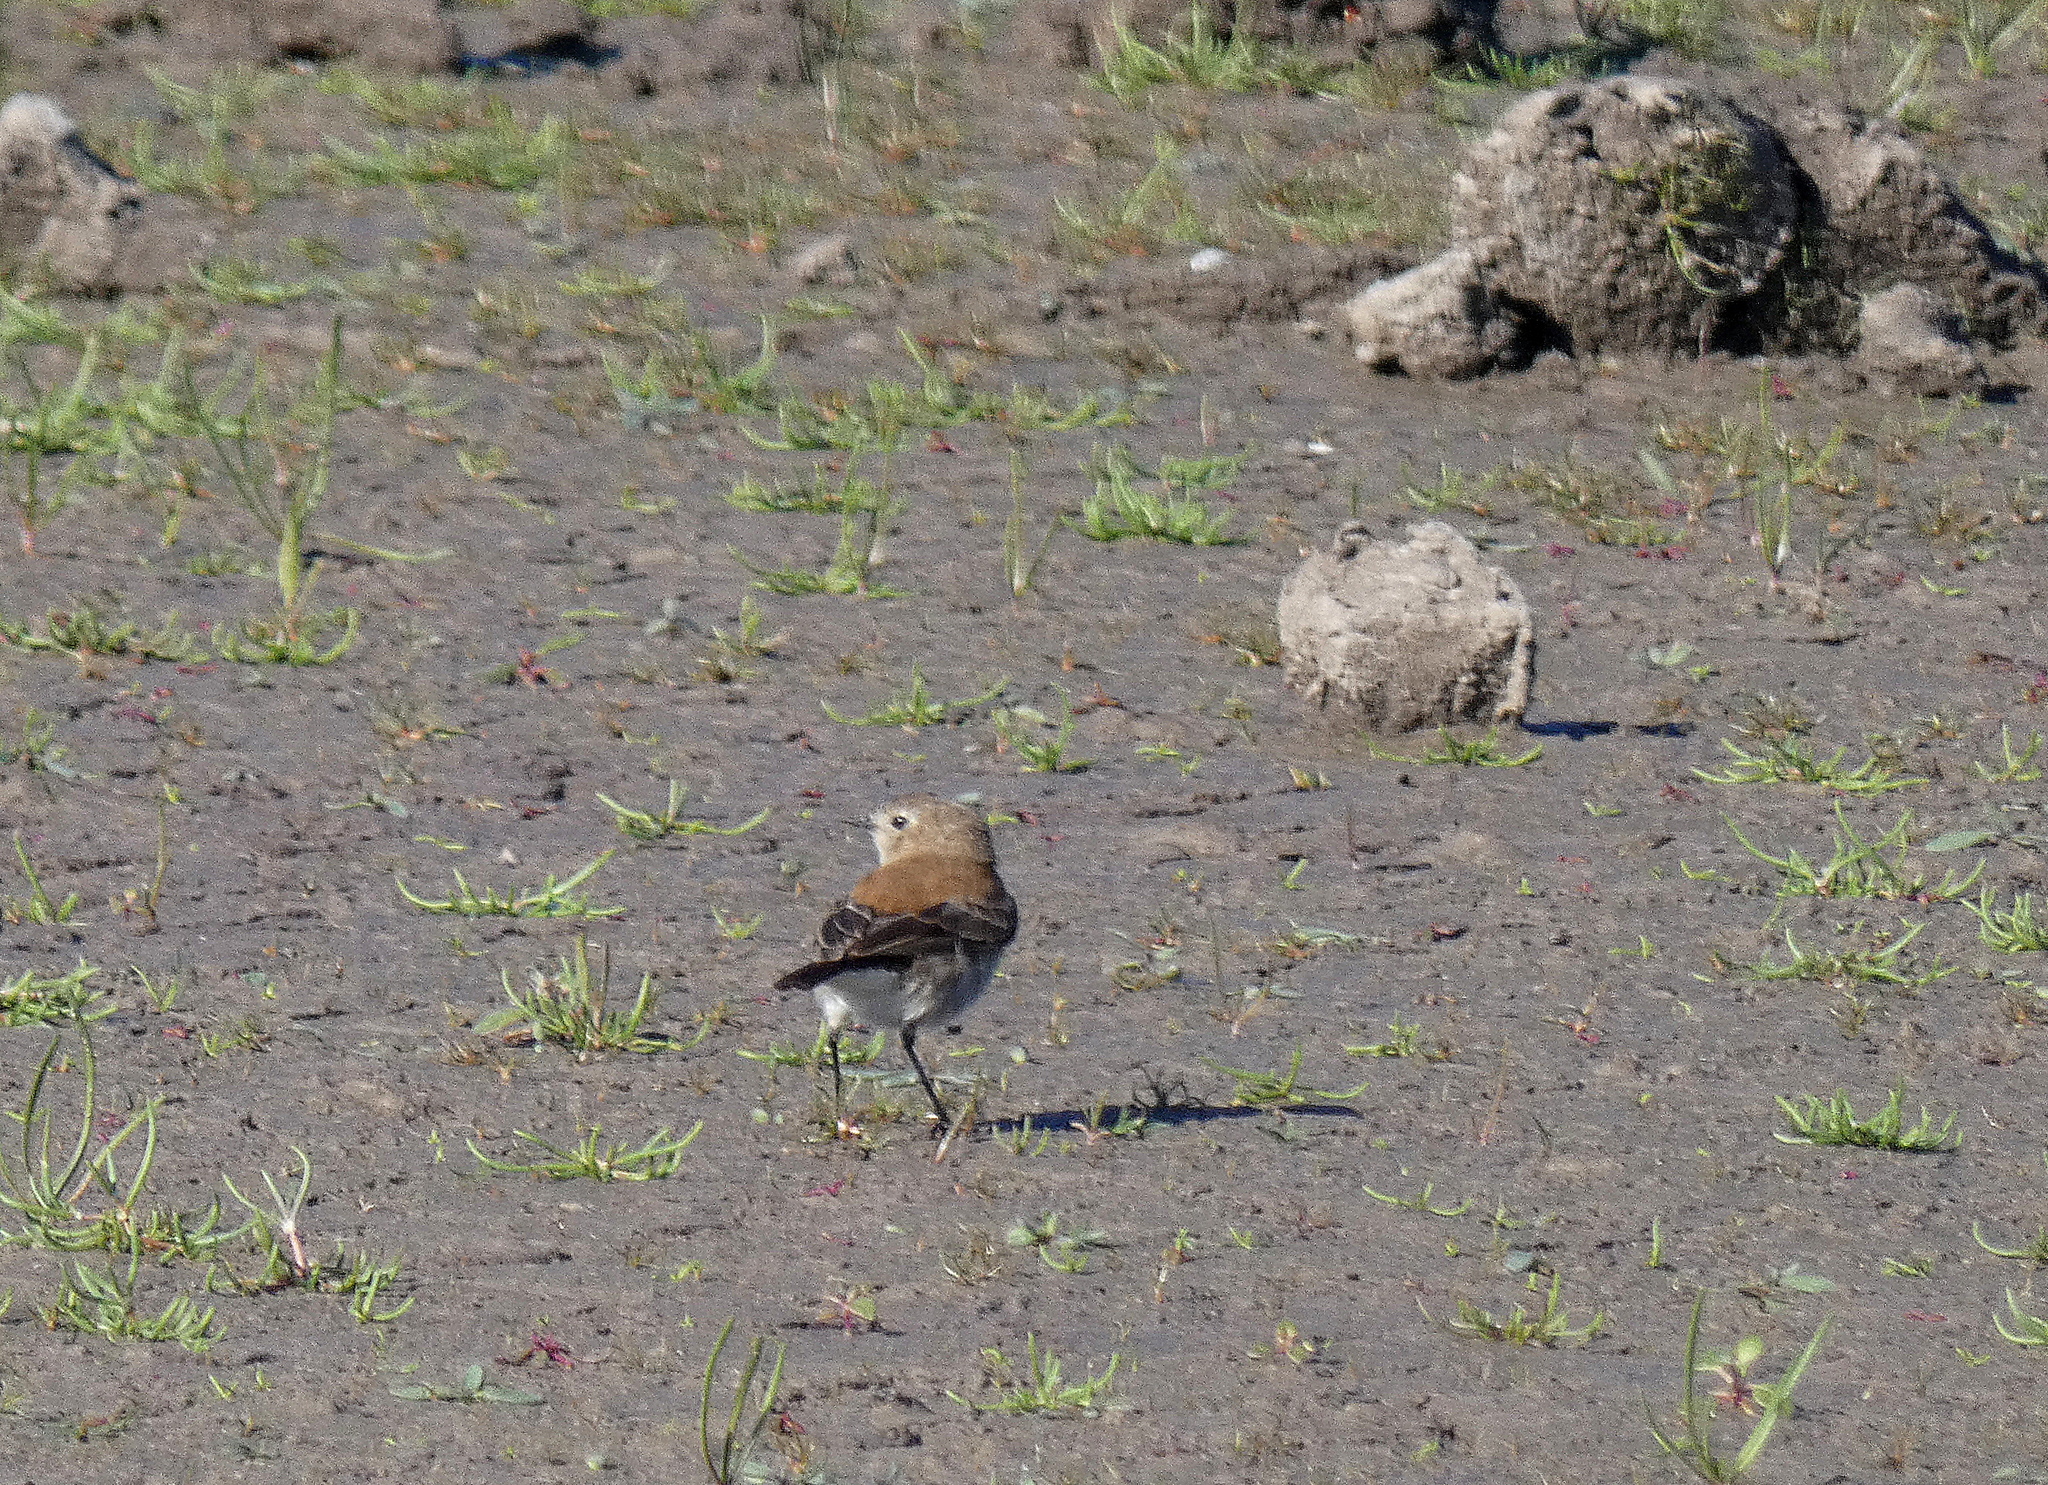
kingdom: Animalia
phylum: Chordata
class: Aves
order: Passeriformes
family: Tyrannidae
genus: Lessonia
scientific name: Lessonia rufa
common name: Austral negrito
